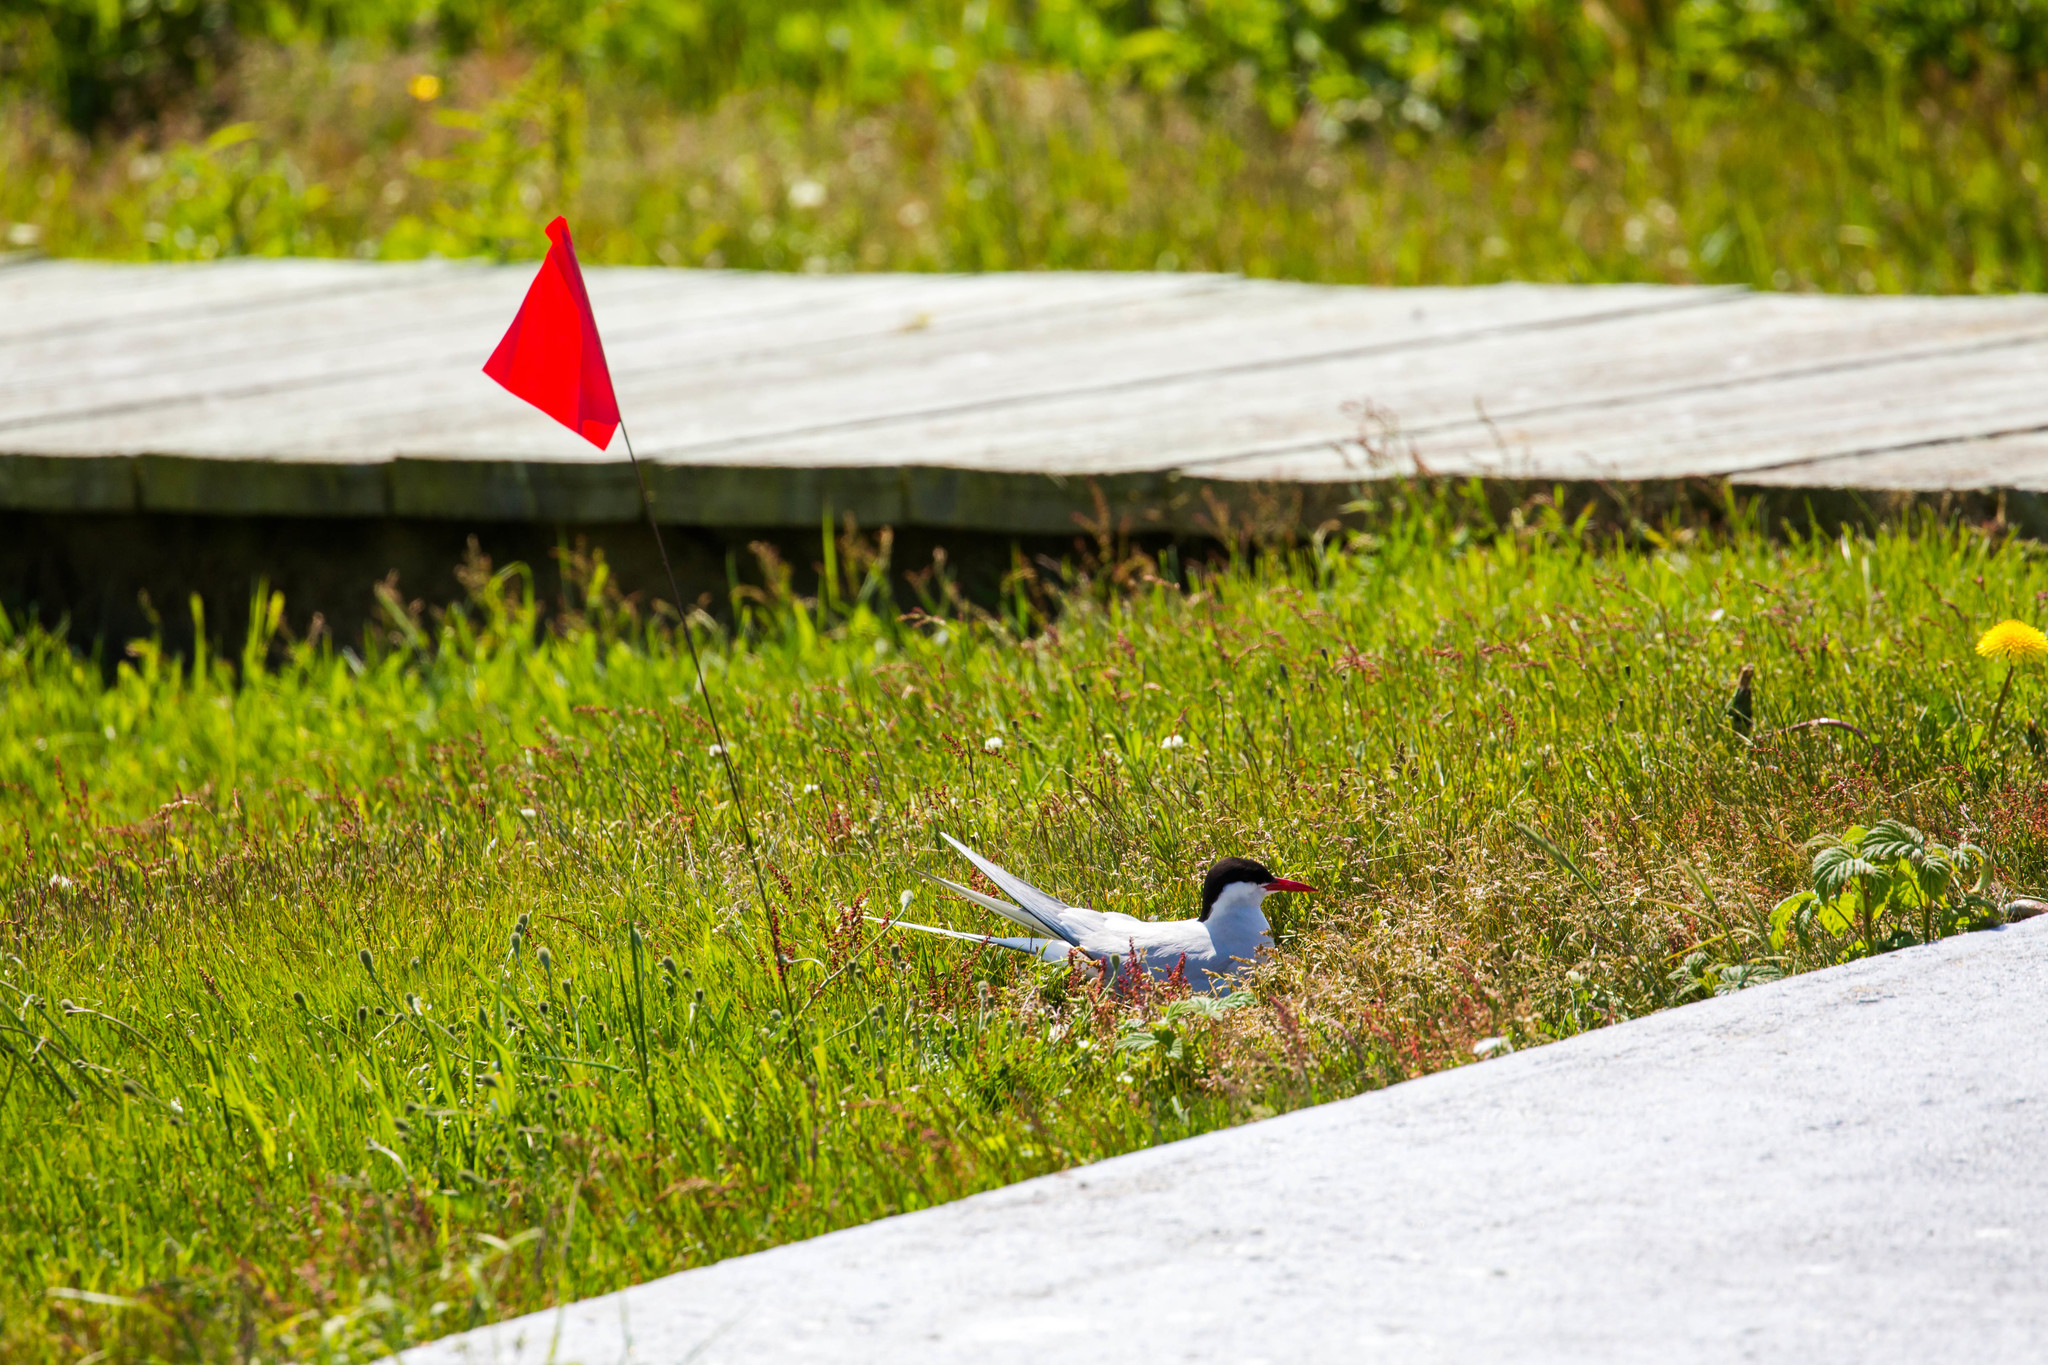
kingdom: Animalia
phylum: Chordata
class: Aves
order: Charadriiformes
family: Laridae
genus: Sterna
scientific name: Sterna paradisaea
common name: Arctic tern
